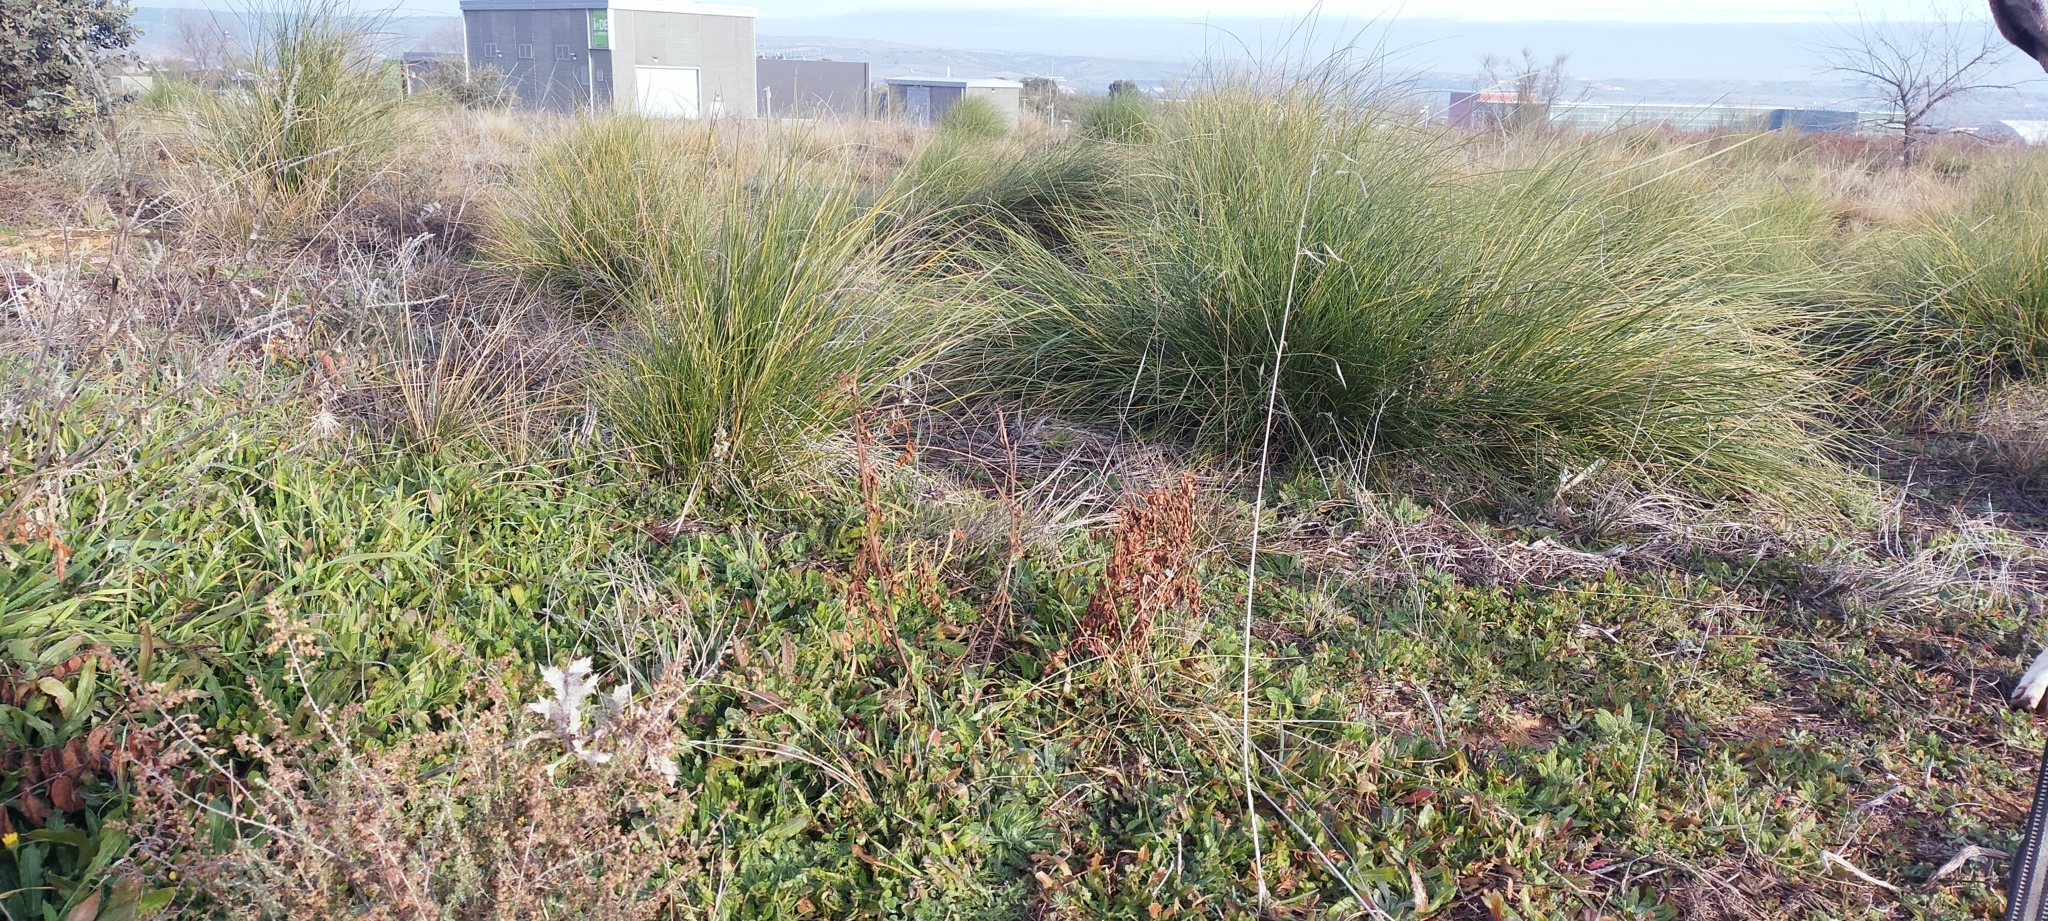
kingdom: Plantae
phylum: Tracheophyta
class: Liliopsida
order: Poales
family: Poaceae
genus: Macrochloa
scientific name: Macrochloa tenacissima
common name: Alfa grass
